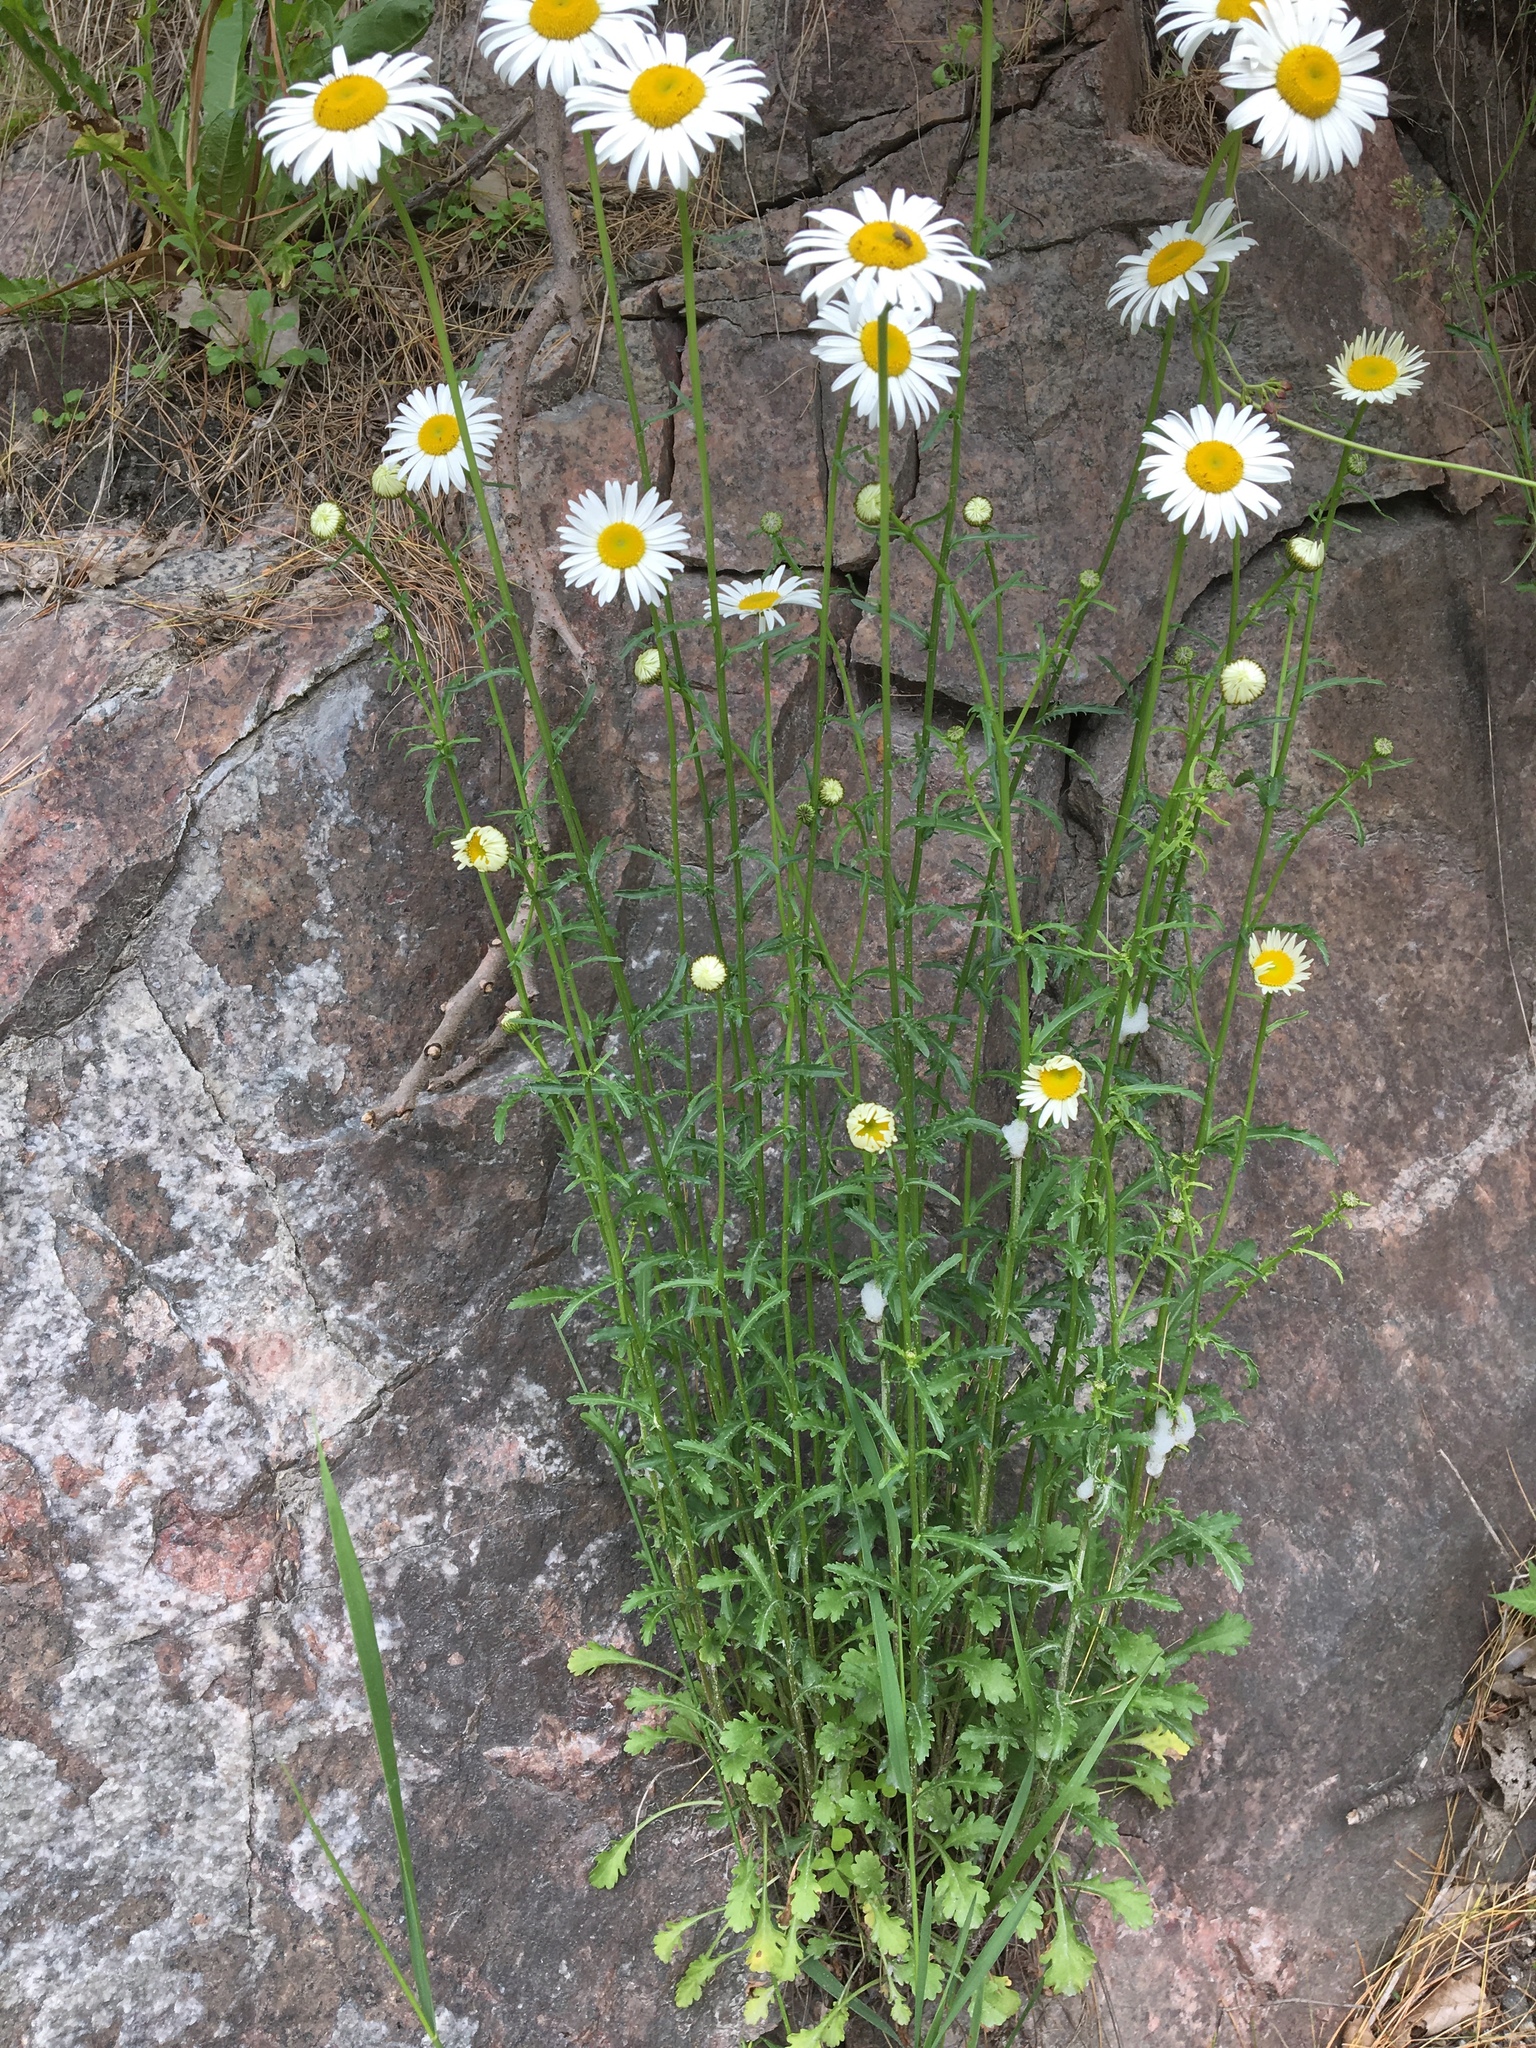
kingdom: Plantae
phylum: Tracheophyta
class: Magnoliopsida
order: Asterales
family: Asteraceae
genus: Leucanthemum
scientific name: Leucanthemum vulgare
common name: Oxeye daisy
